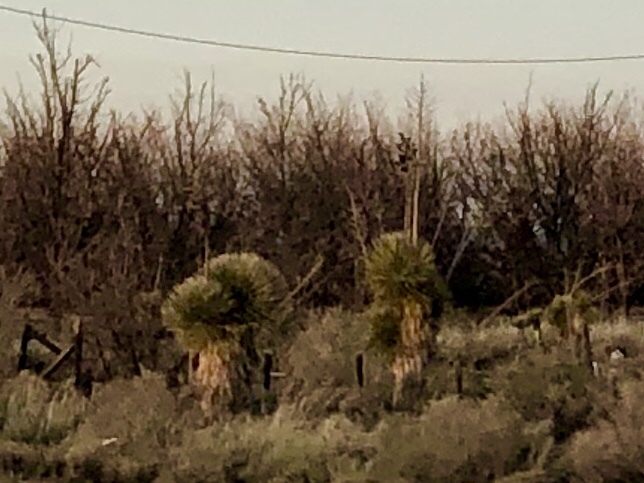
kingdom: Plantae
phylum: Tracheophyta
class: Liliopsida
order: Asparagales
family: Asparagaceae
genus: Yucca
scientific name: Yucca elata
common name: Palmella
